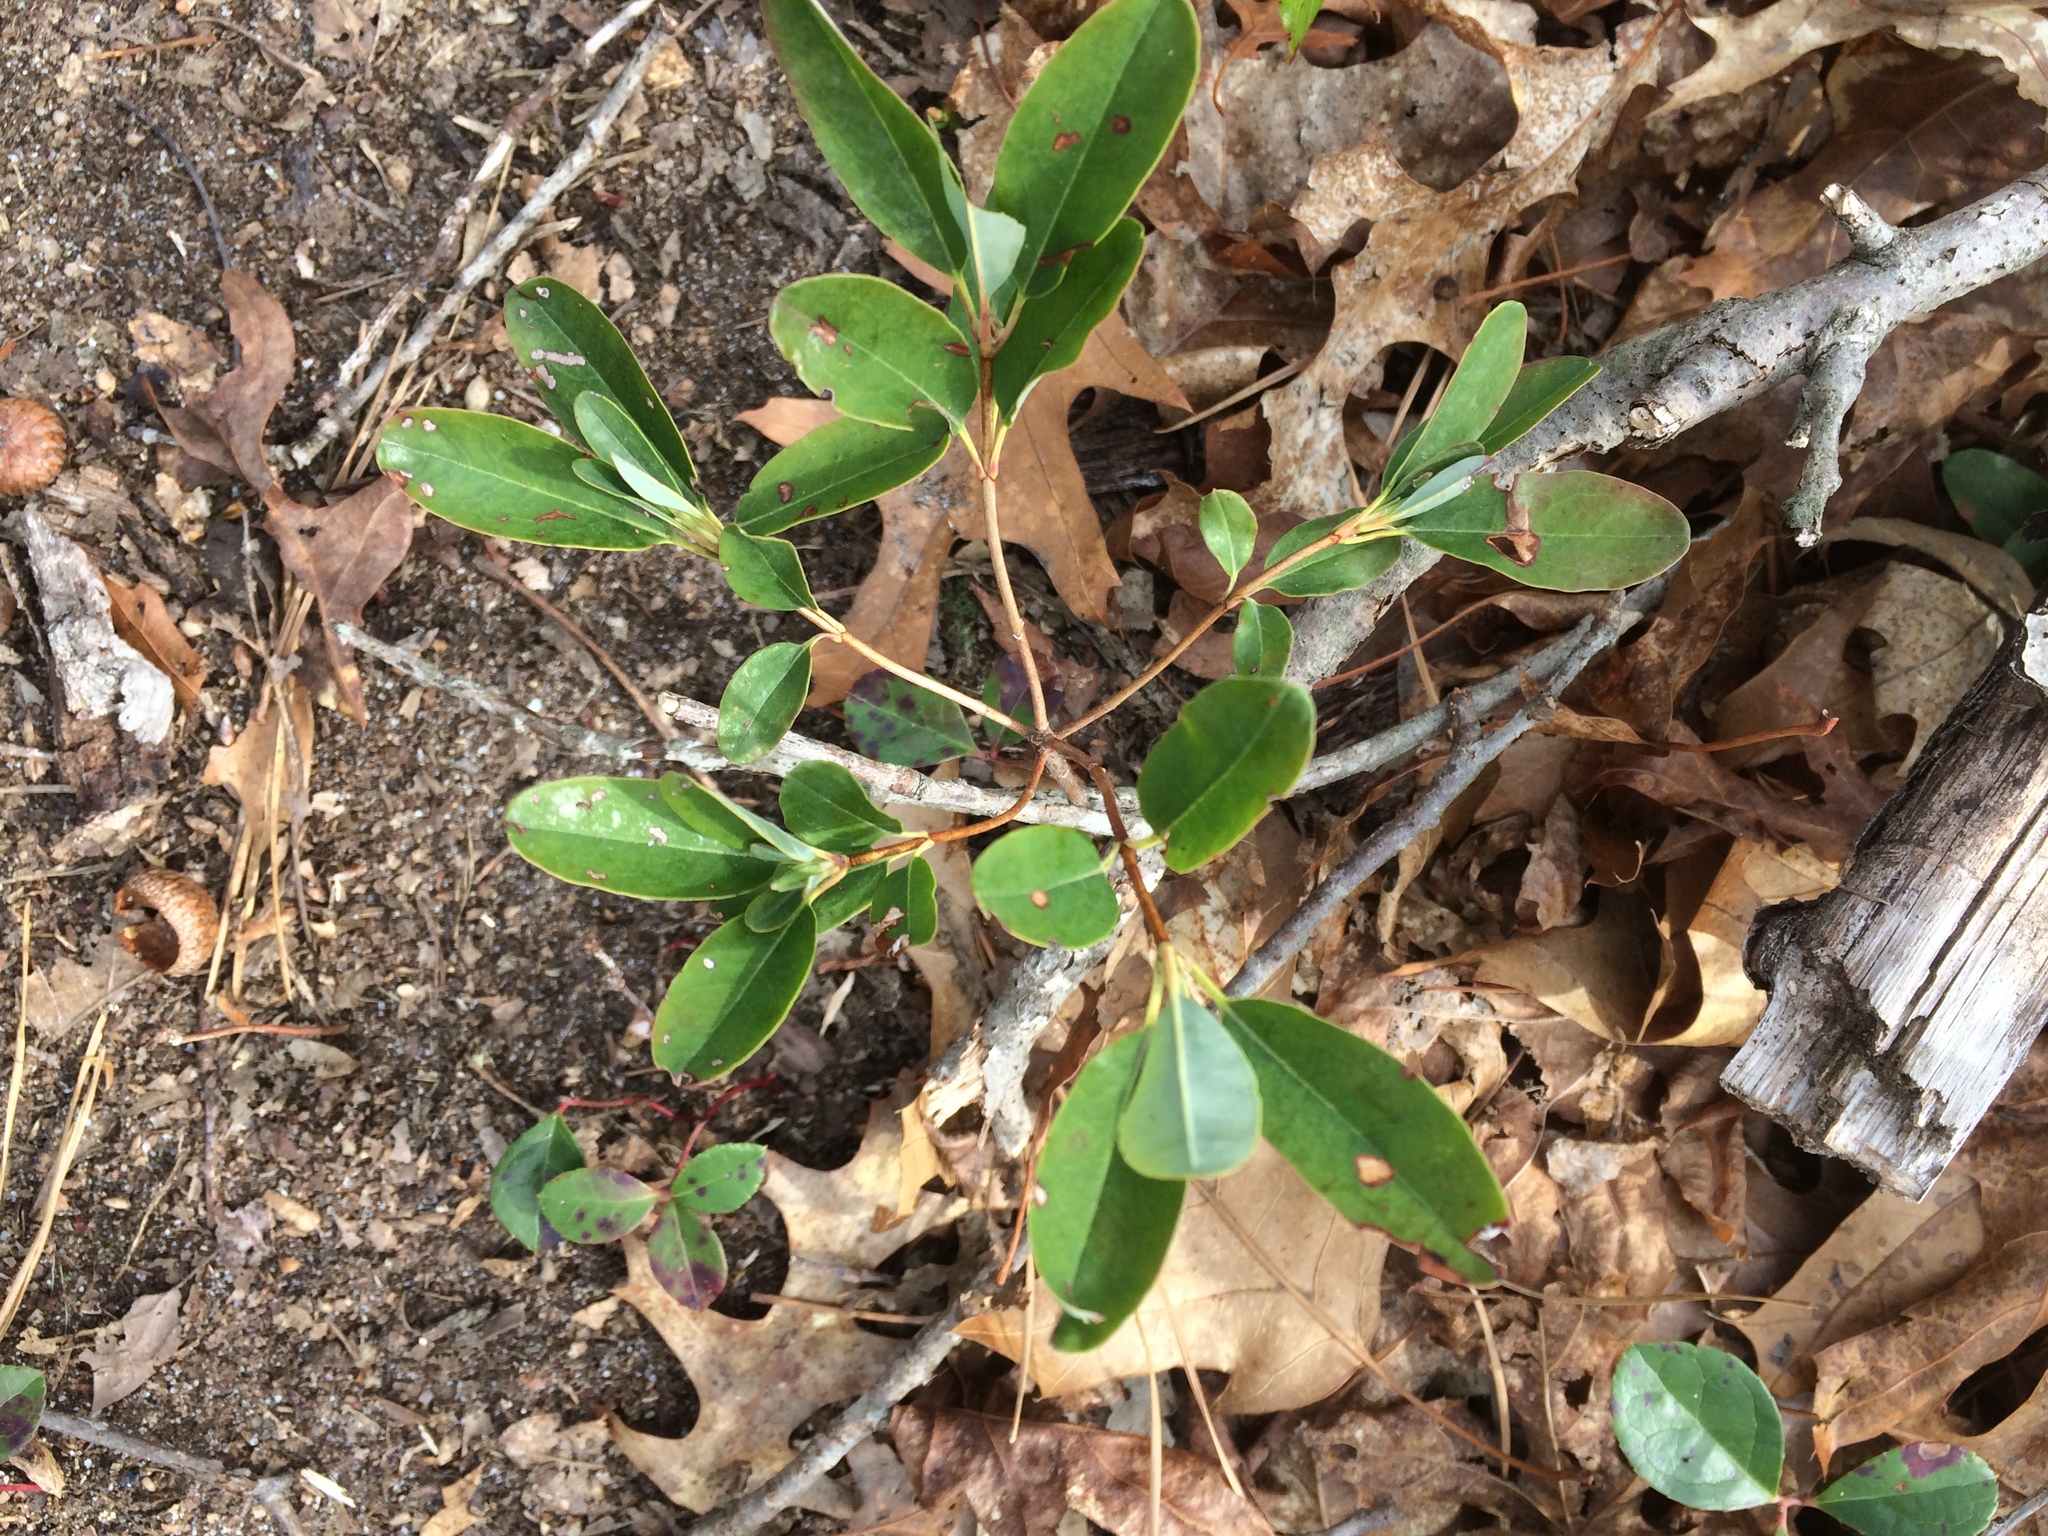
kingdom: Plantae
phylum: Tracheophyta
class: Magnoliopsida
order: Ericales
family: Ericaceae
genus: Kalmia
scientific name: Kalmia angustifolia
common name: Sheep-laurel
